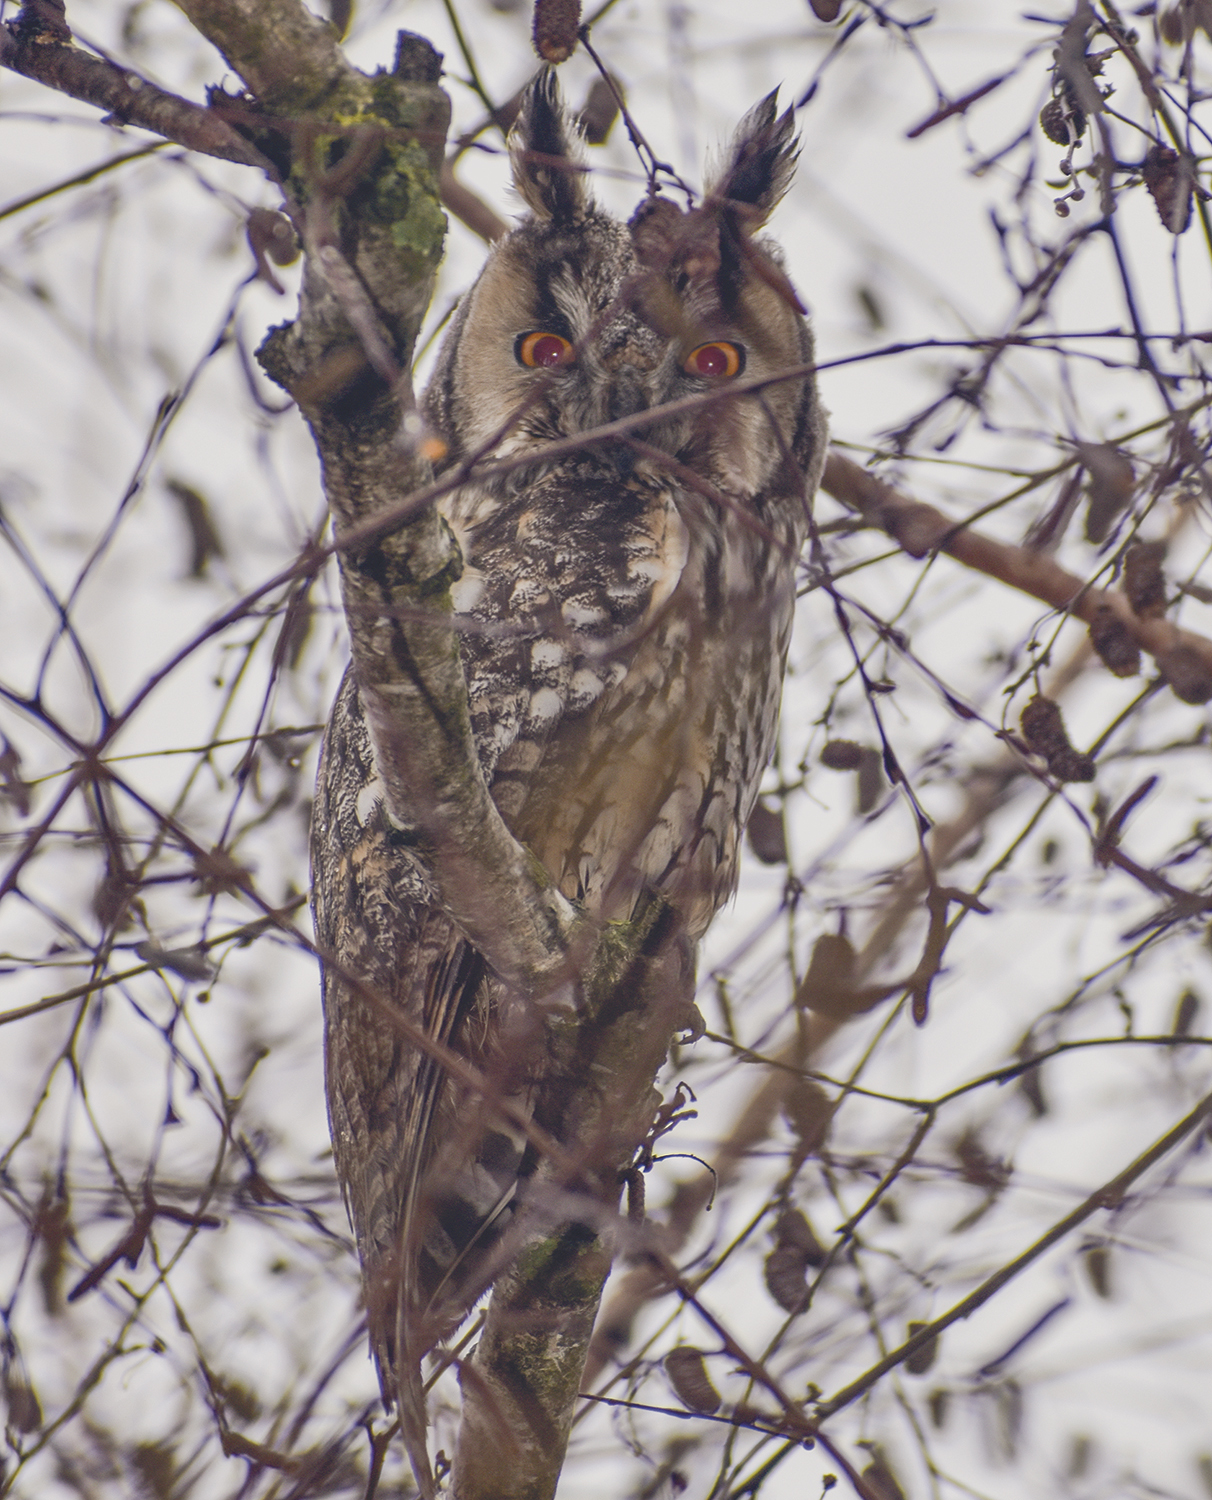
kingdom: Animalia
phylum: Chordata
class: Aves
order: Strigiformes
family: Strigidae
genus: Asio
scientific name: Asio otus
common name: Long-eared owl
